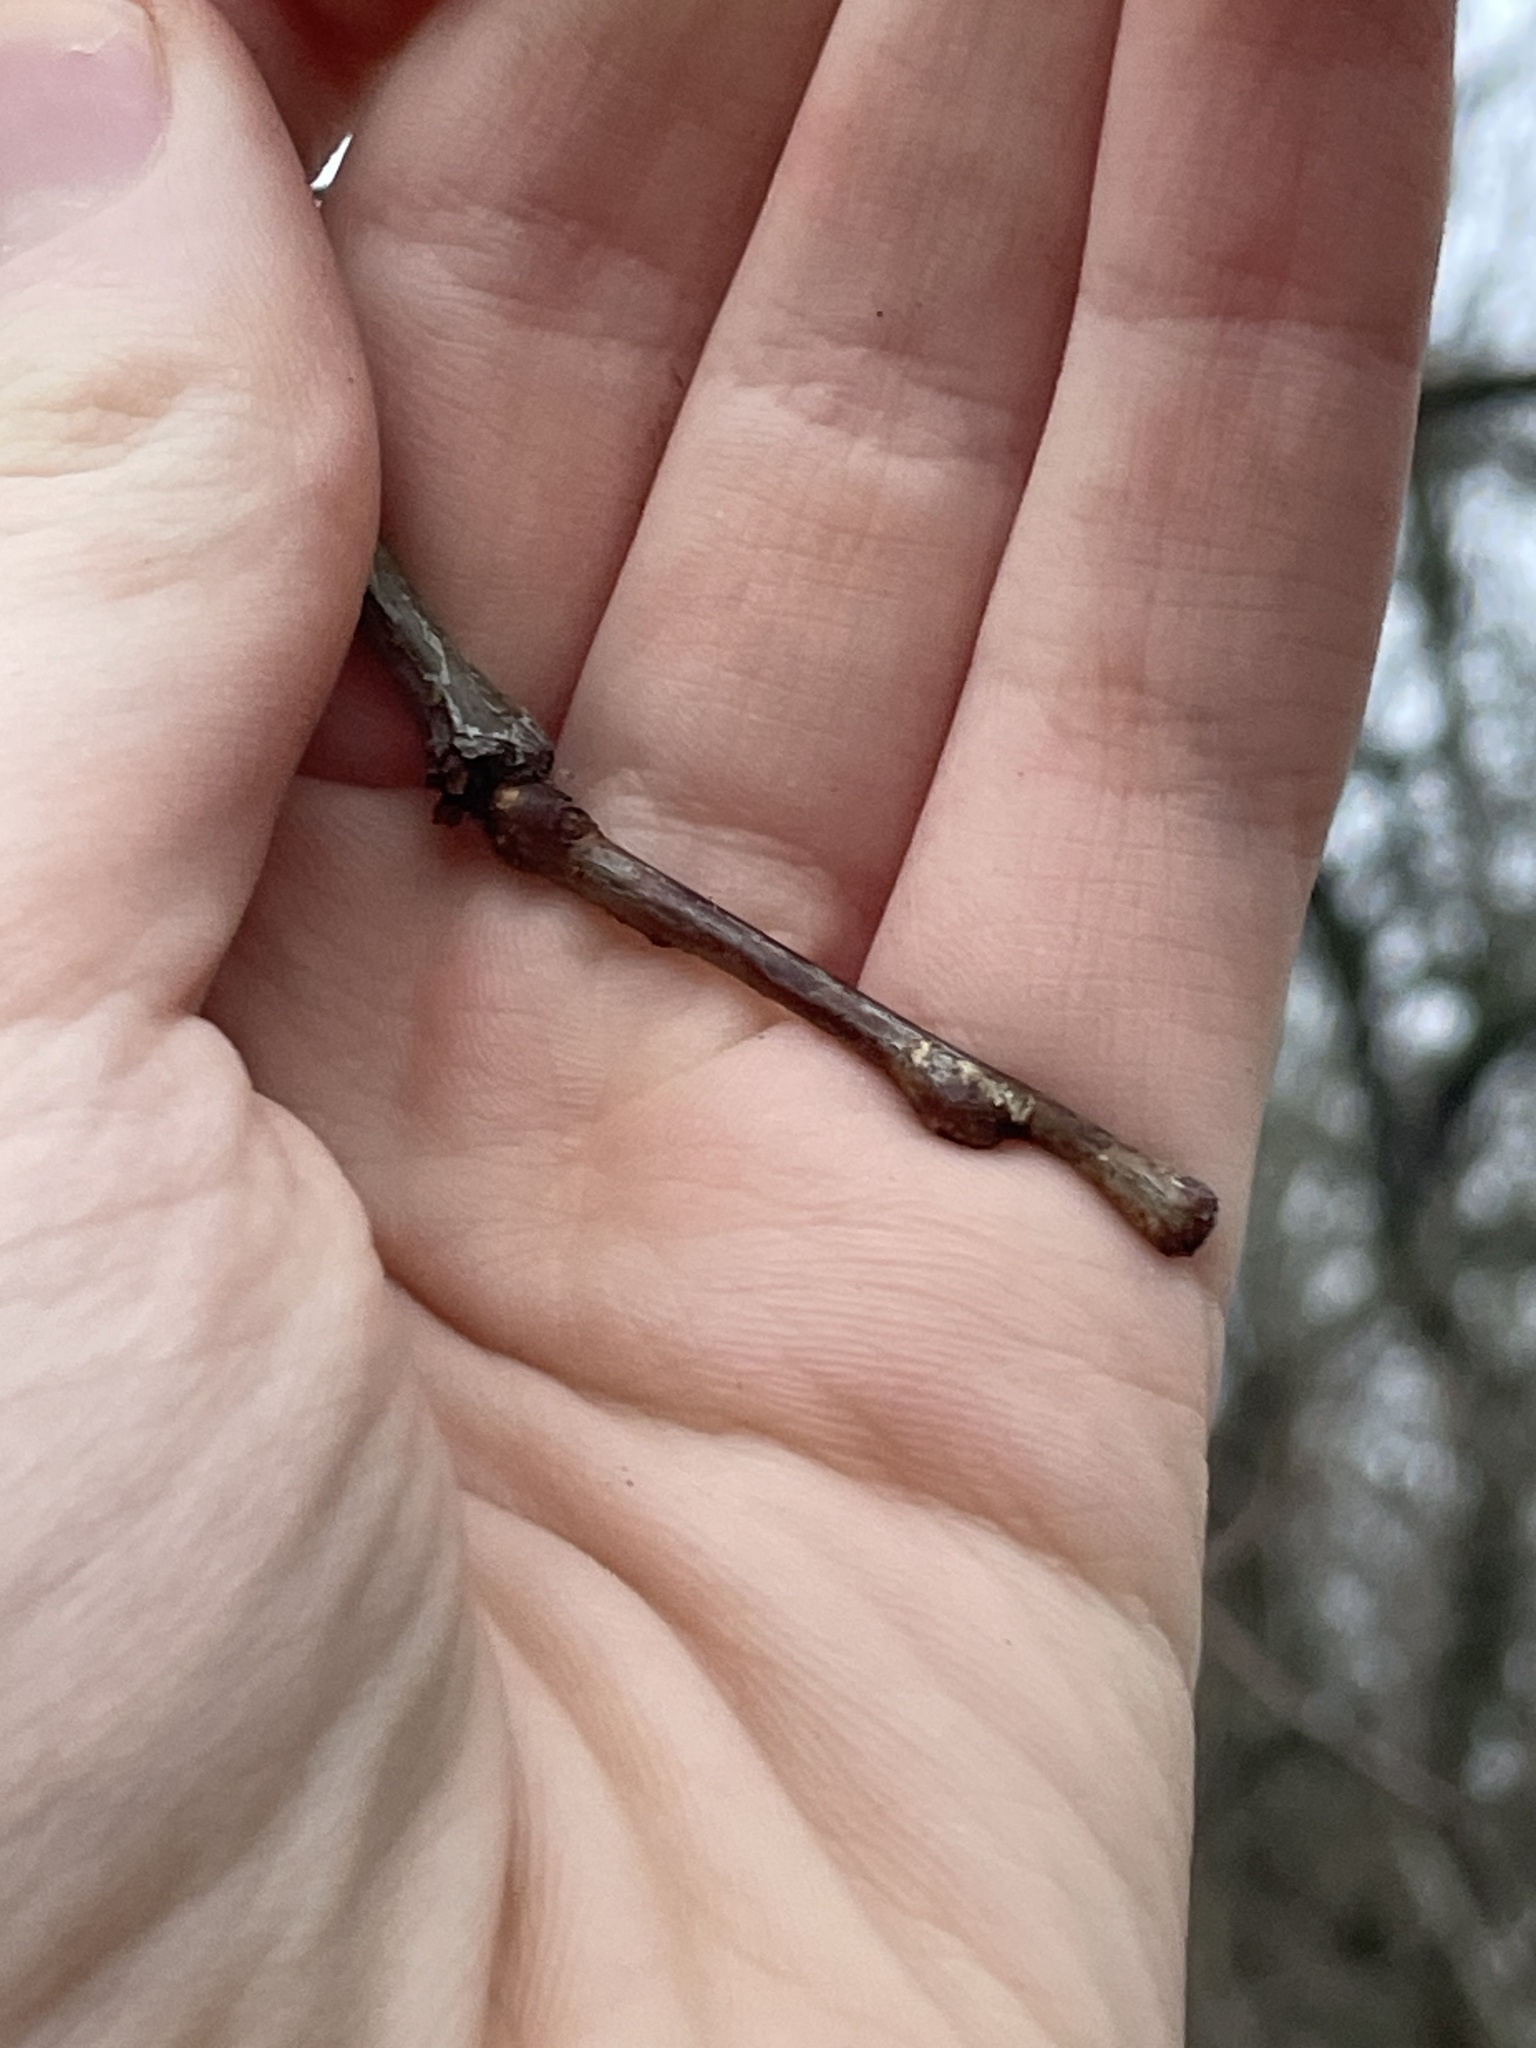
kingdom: Plantae
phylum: Tracheophyta
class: Magnoliopsida
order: Fabales
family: Fabaceae
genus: Gleditsia
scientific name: Gleditsia triacanthos
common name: Common honeylocust
